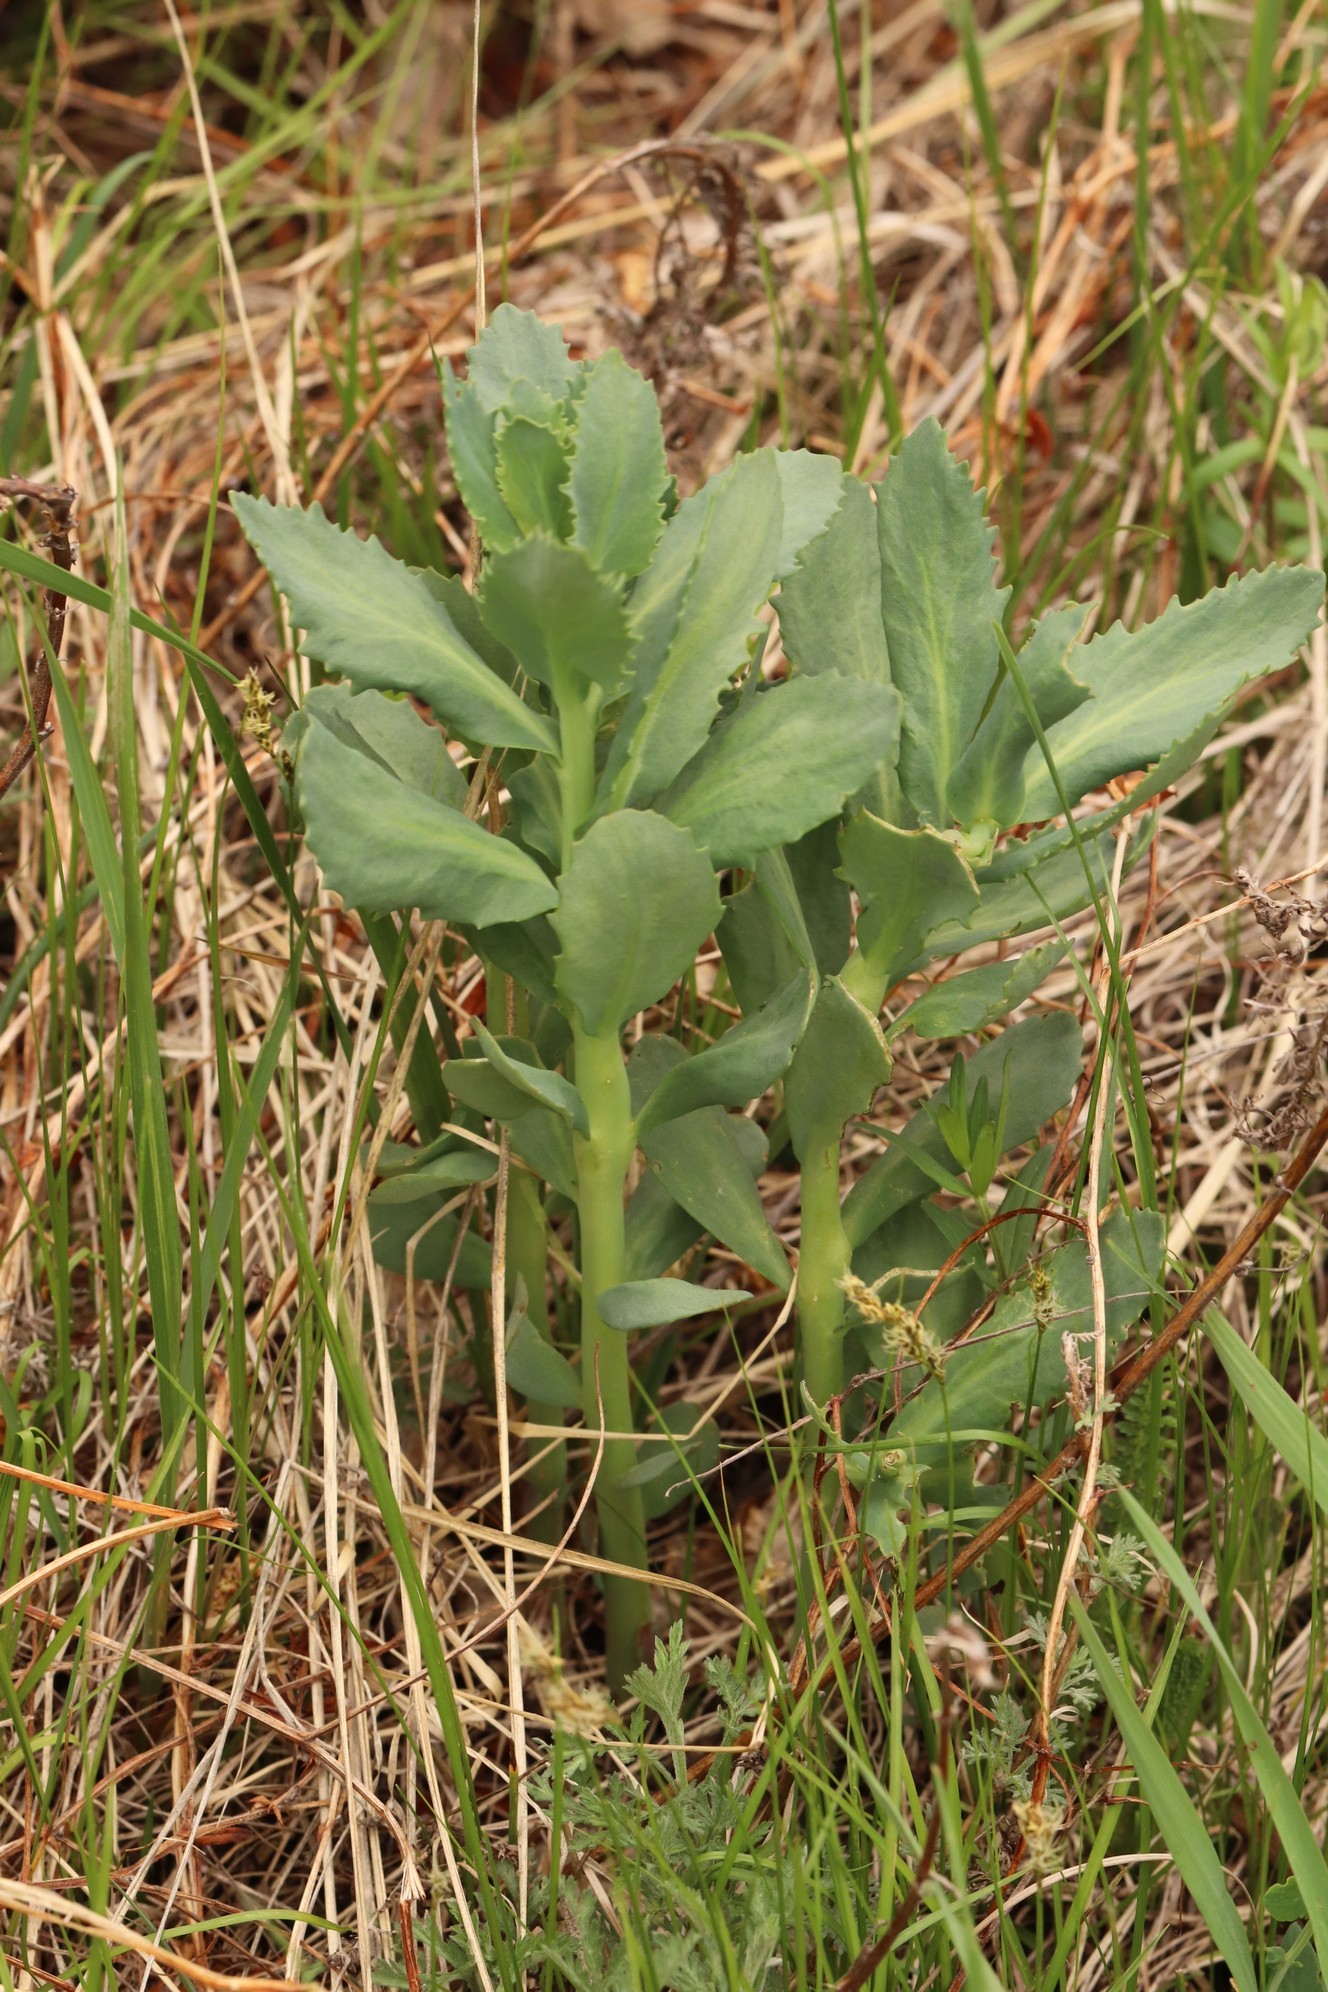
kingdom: Plantae
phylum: Tracheophyta
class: Magnoliopsida
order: Saxifragales
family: Crassulaceae
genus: Hylotelephium
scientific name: Hylotelephium telephium
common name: Live-forever
